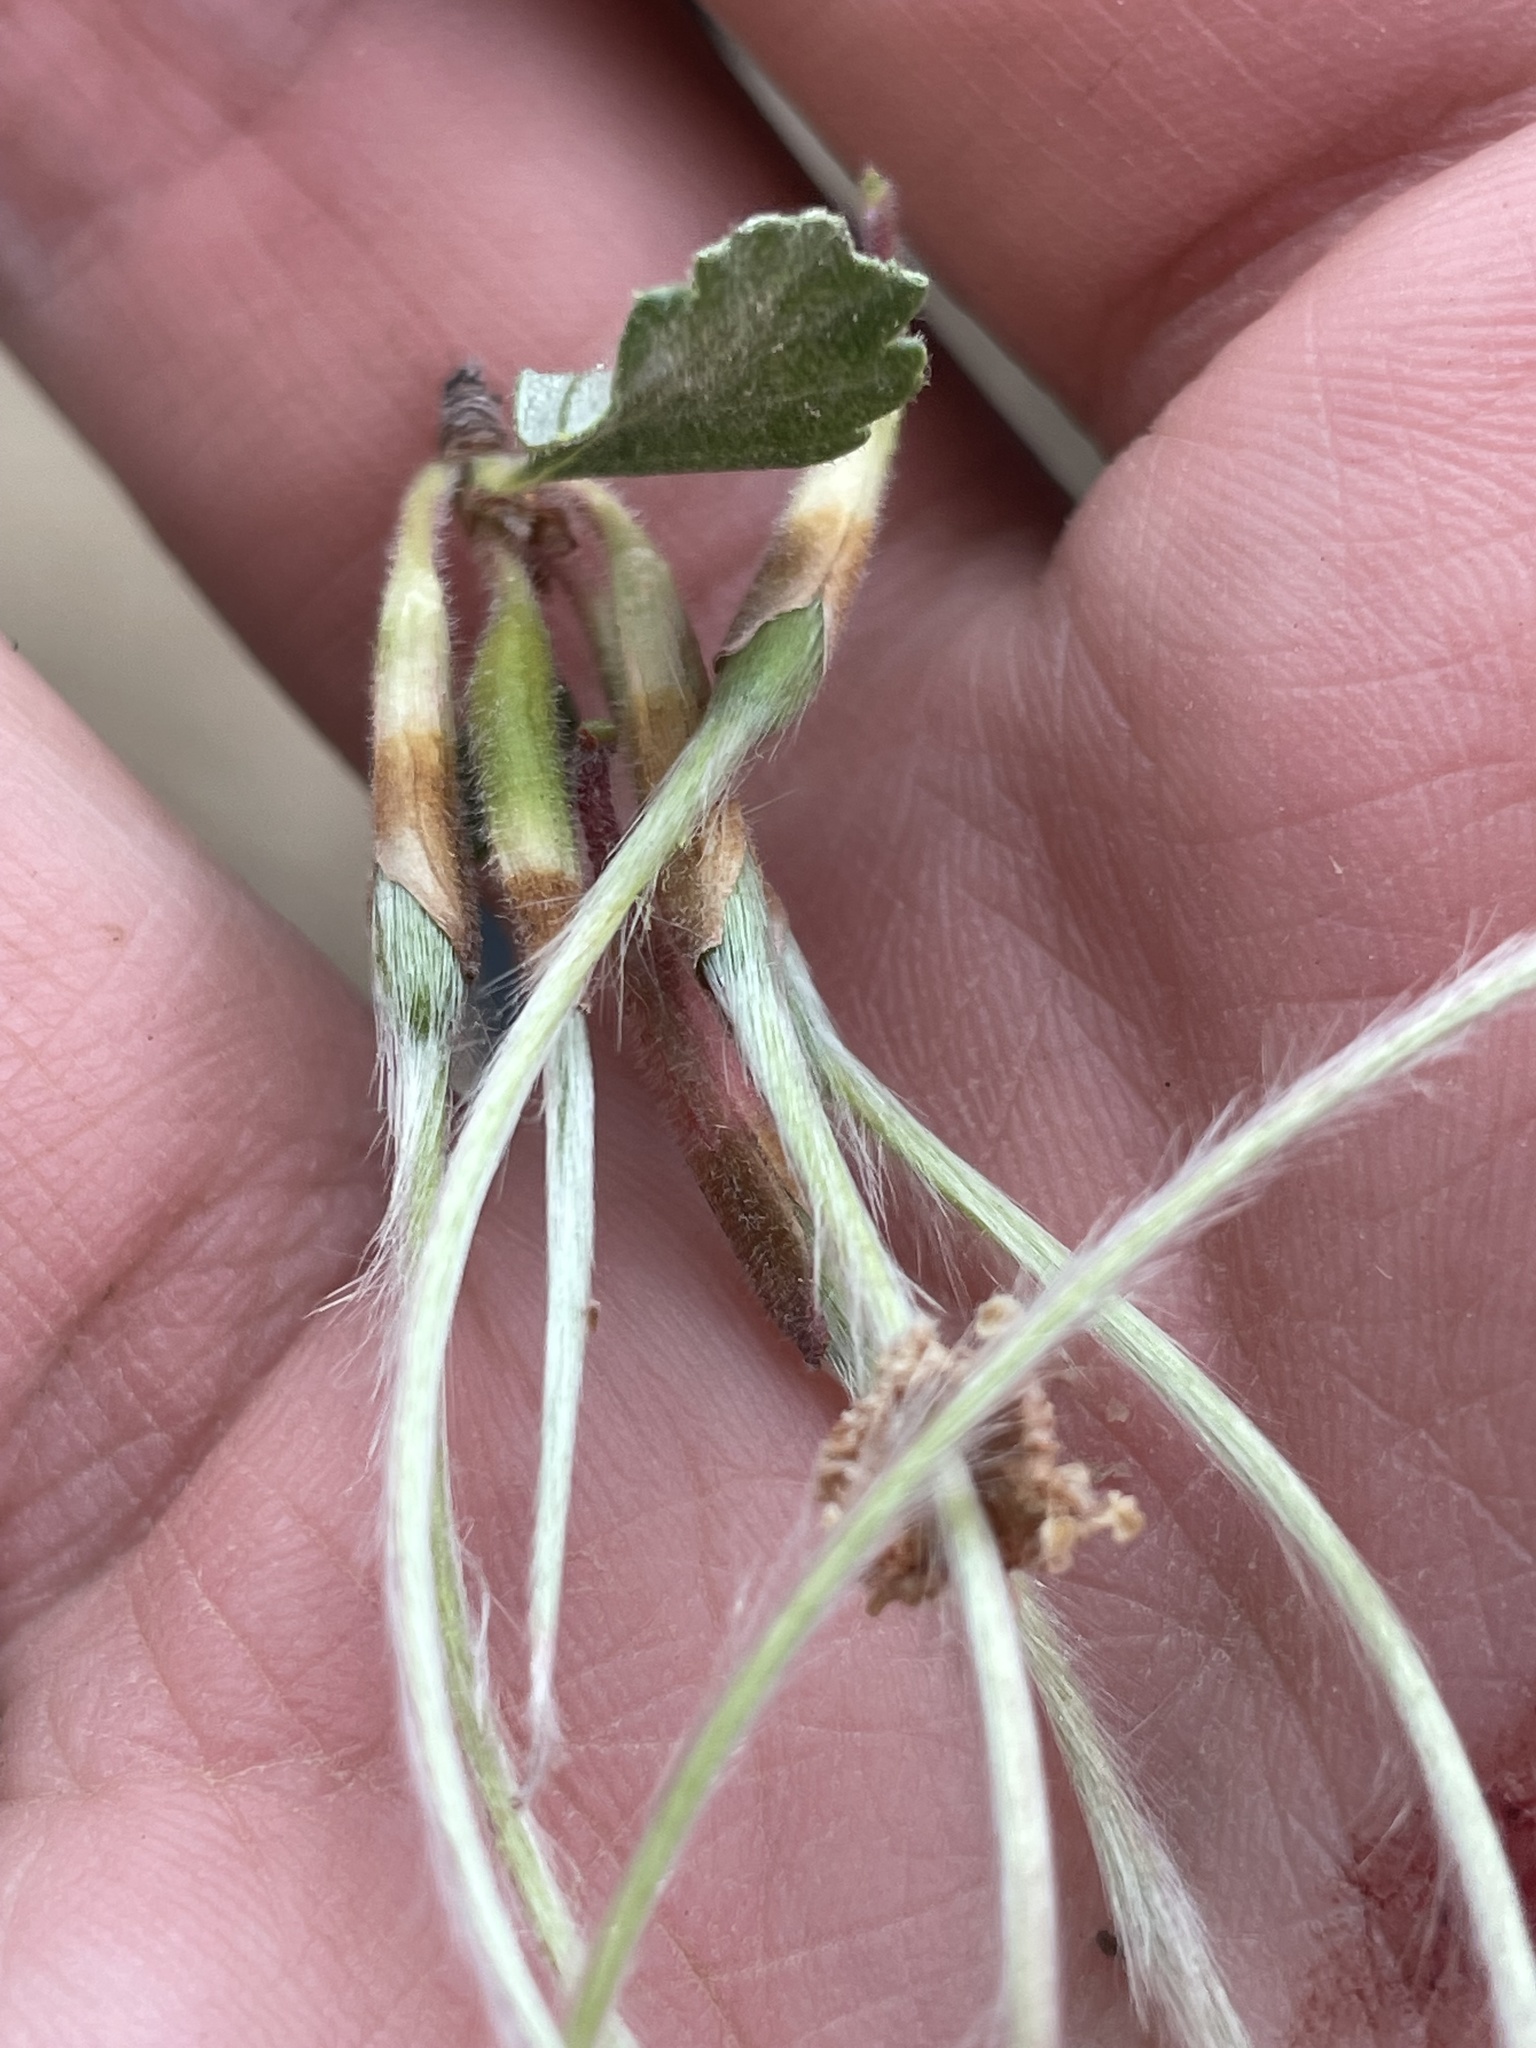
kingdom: Plantae
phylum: Tracheophyta
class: Magnoliopsida
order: Rosales
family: Rosaceae
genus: Cercocarpus
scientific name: Cercocarpus montanus
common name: Alder-leaf cercocarpus
